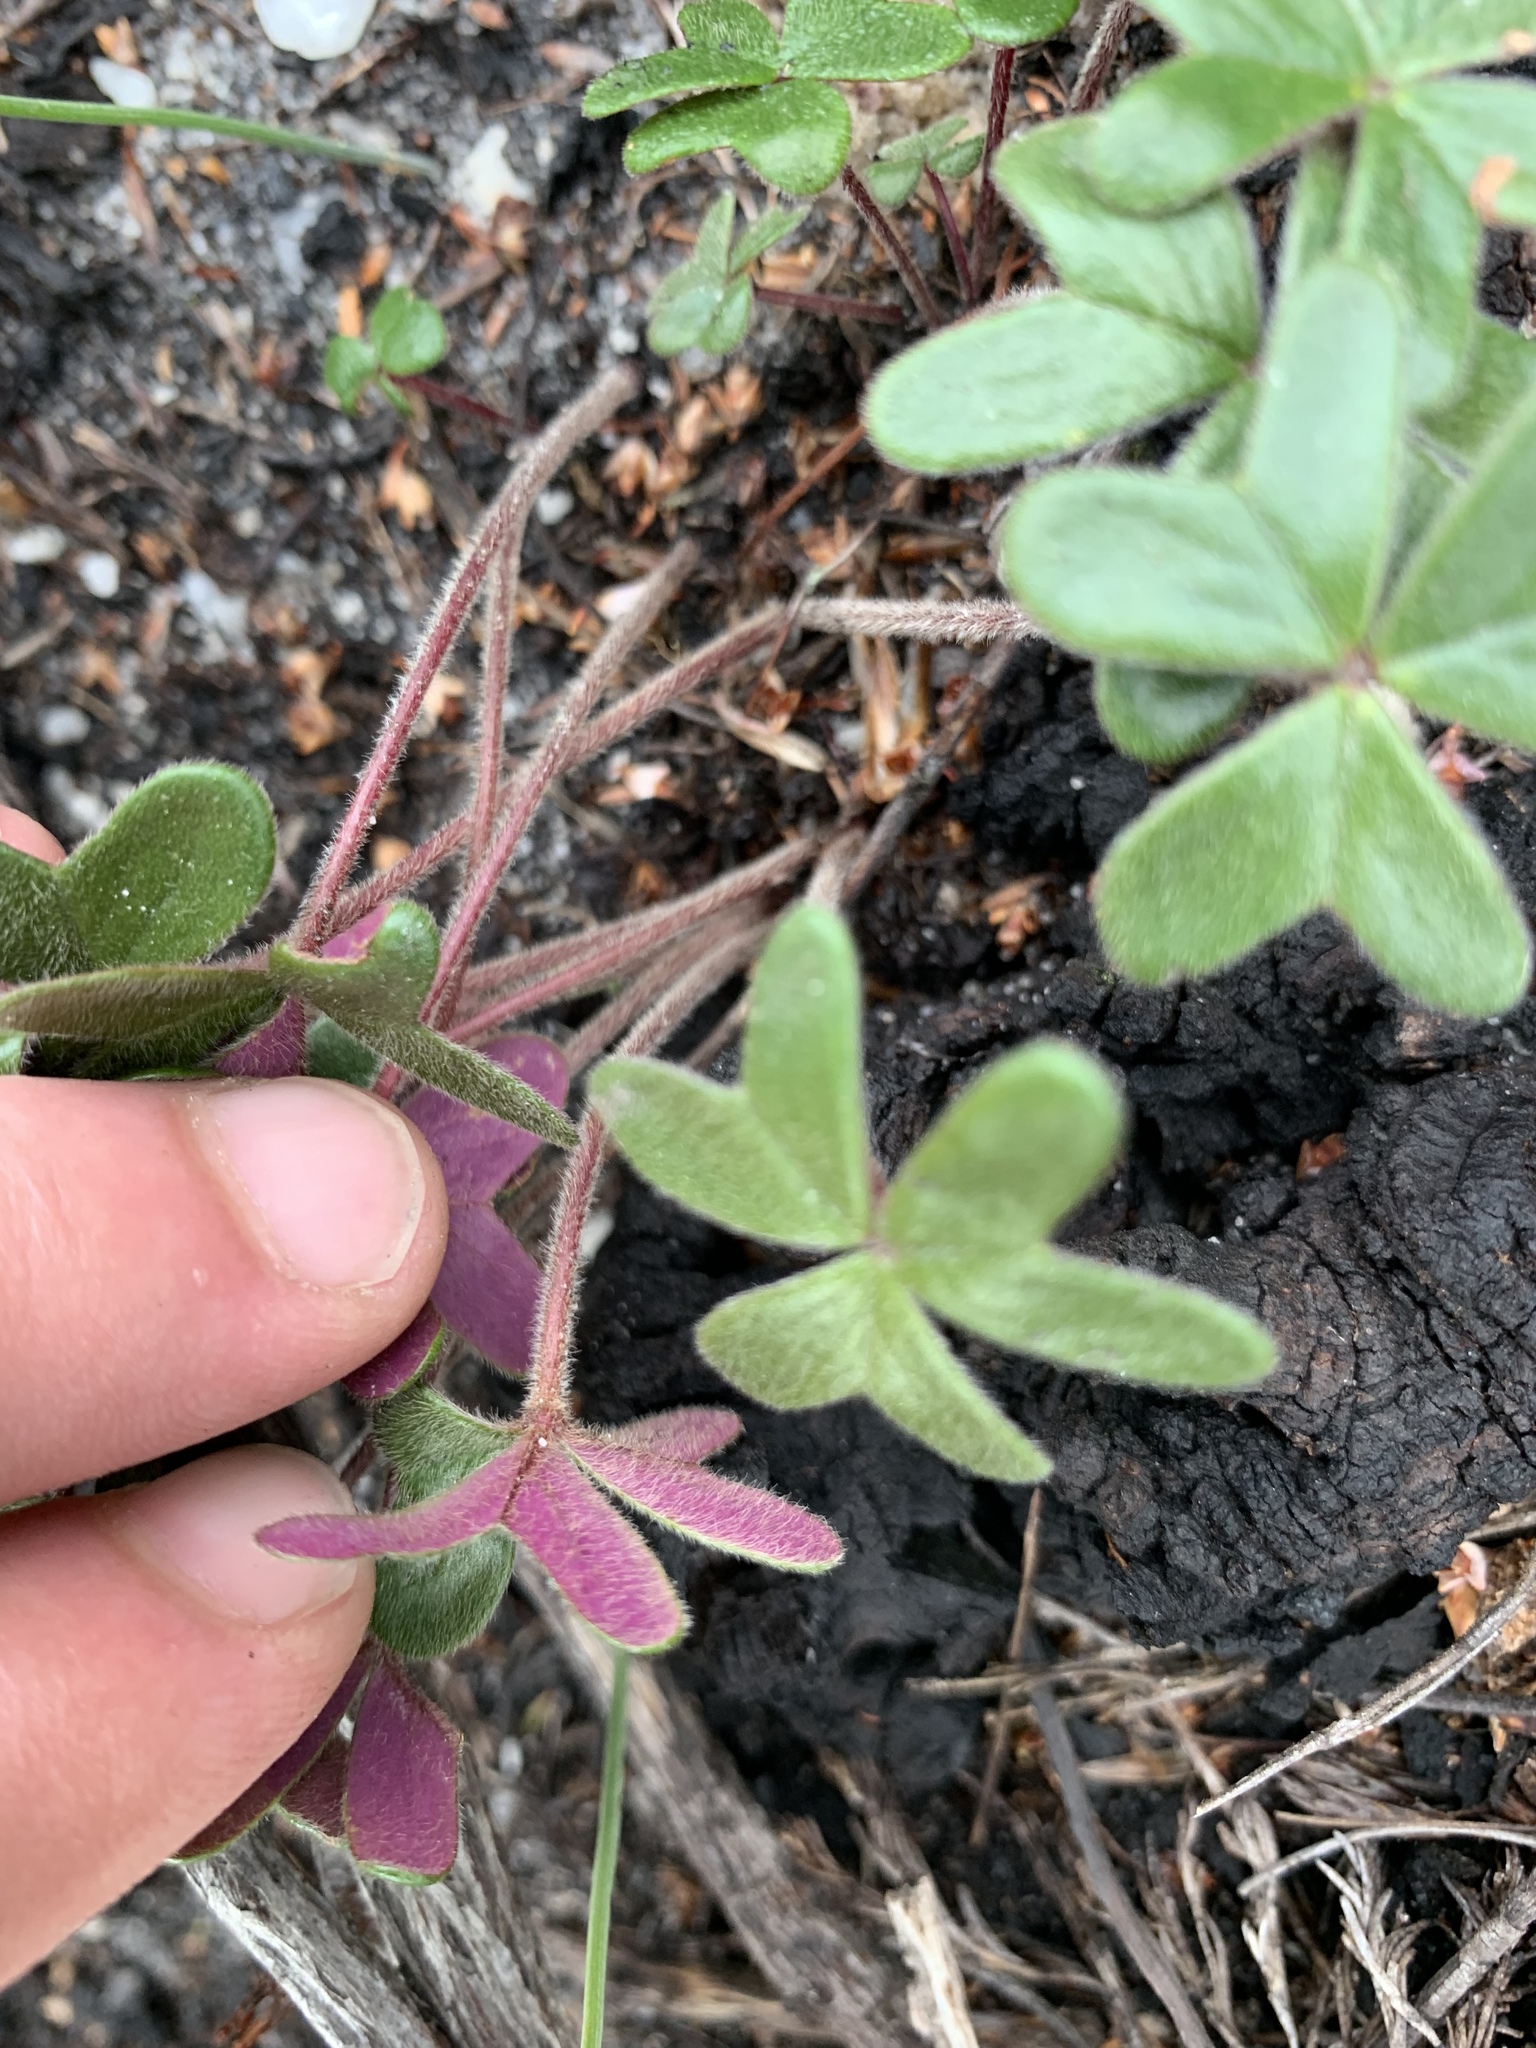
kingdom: Plantae
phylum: Tracheophyta
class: Magnoliopsida
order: Oxalidales
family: Oxalidaceae
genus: Oxalis
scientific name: Oxalis truncatula
